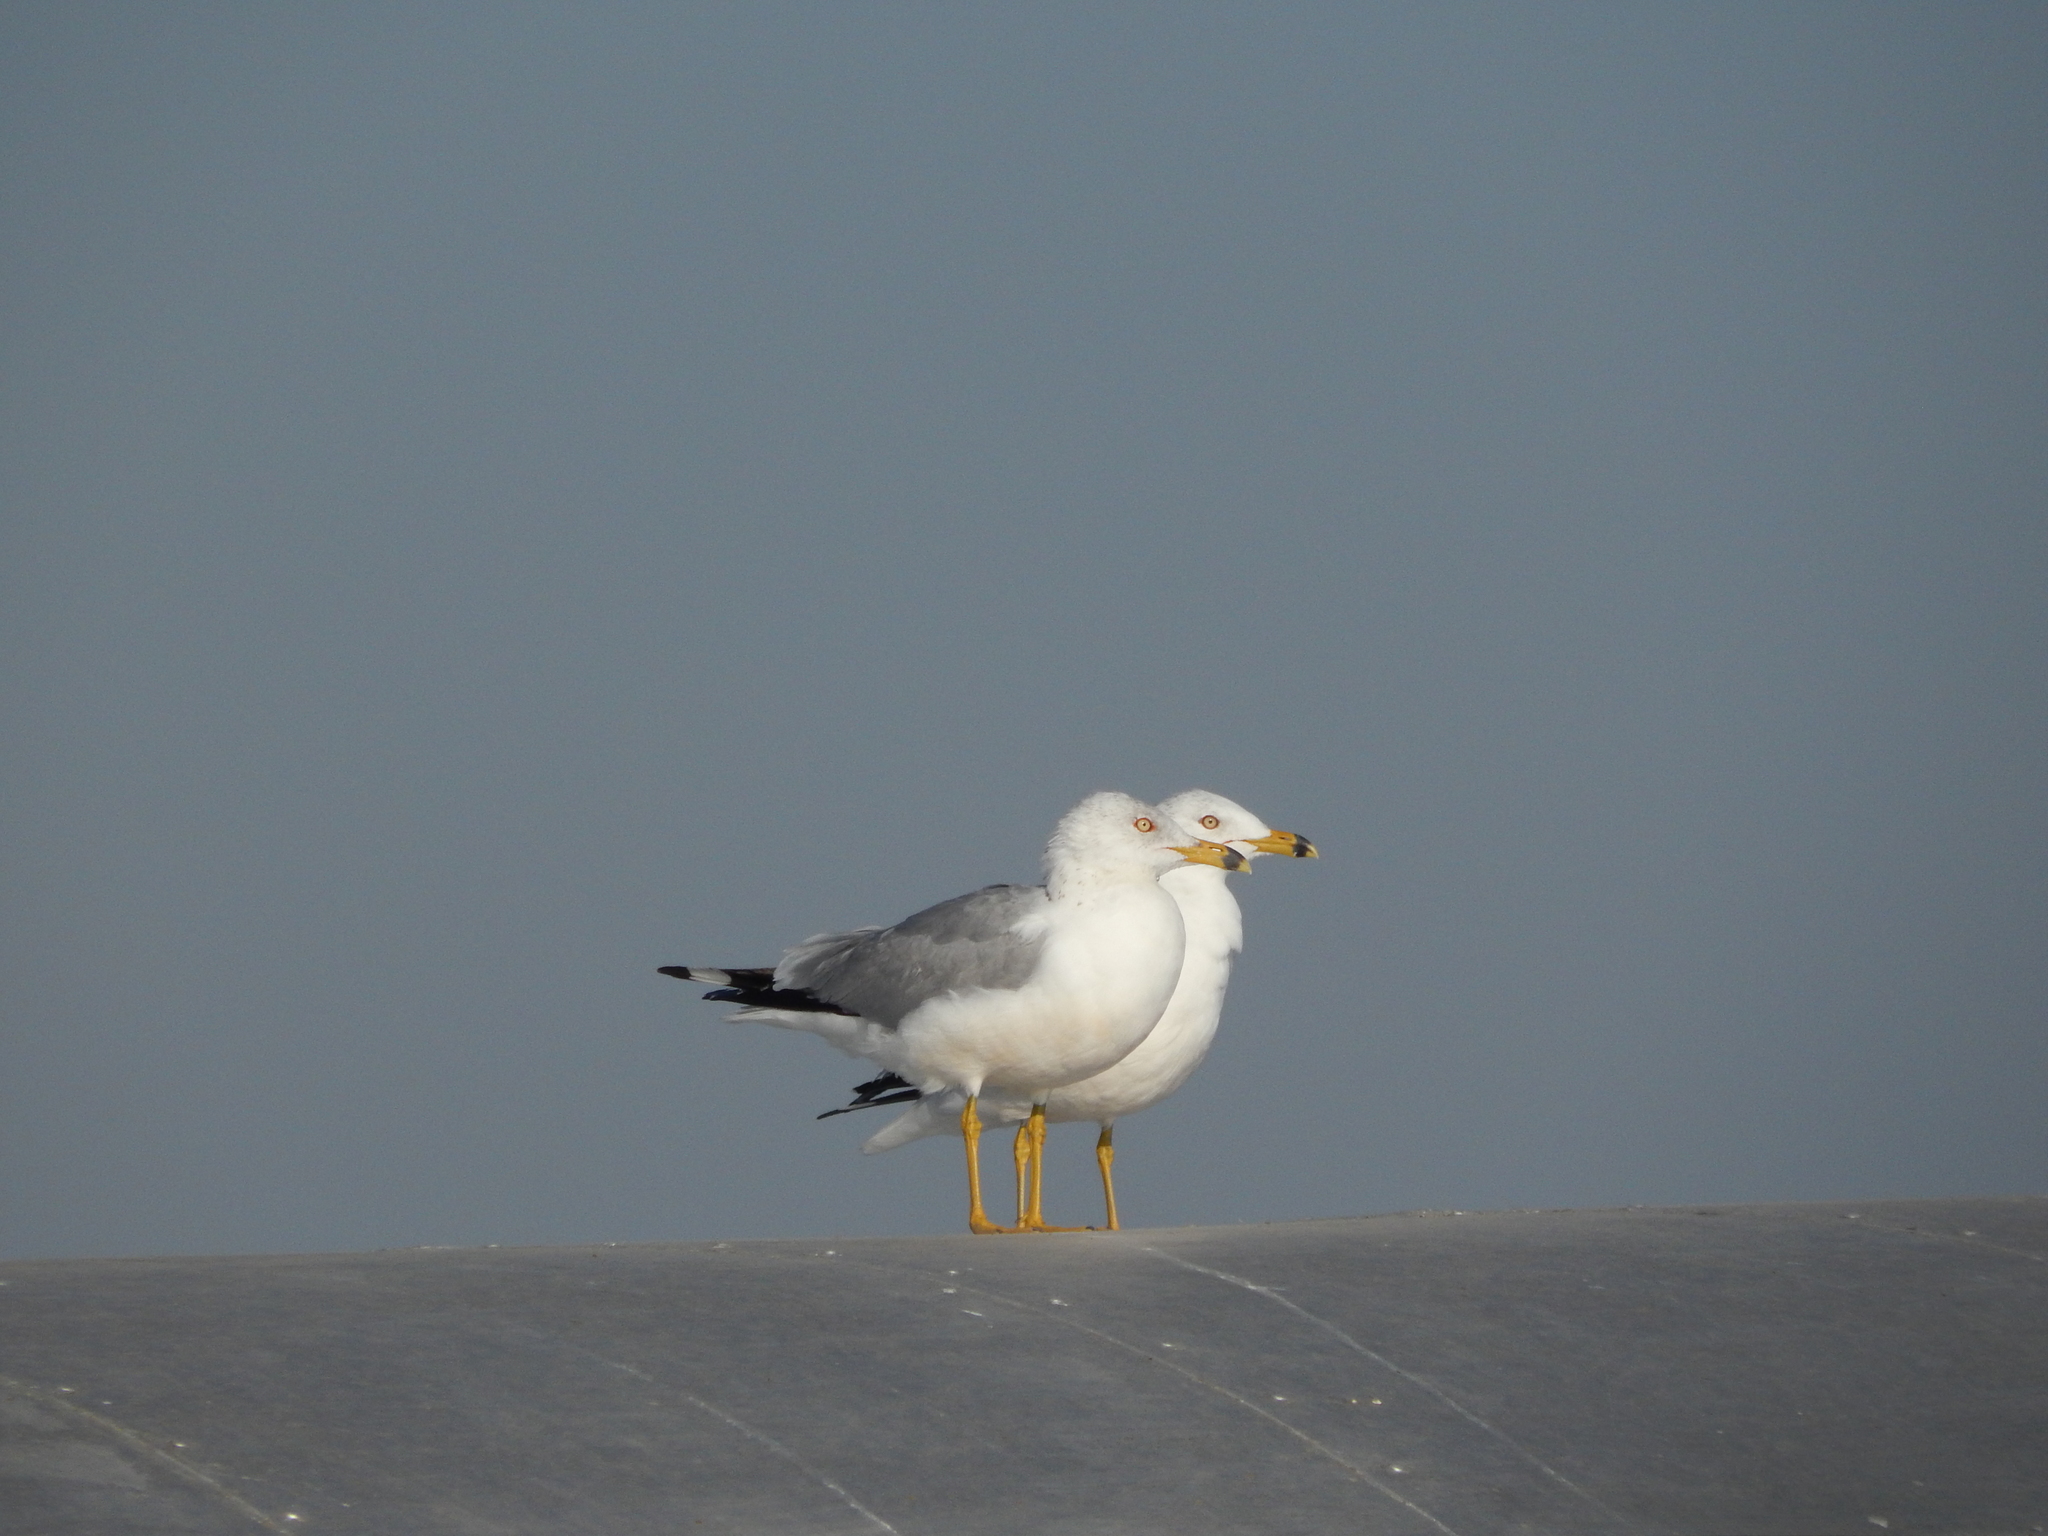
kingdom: Animalia
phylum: Chordata
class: Aves
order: Charadriiformes
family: Laridae
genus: Larus
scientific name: Larus delawarensis
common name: Ring-billed gull
